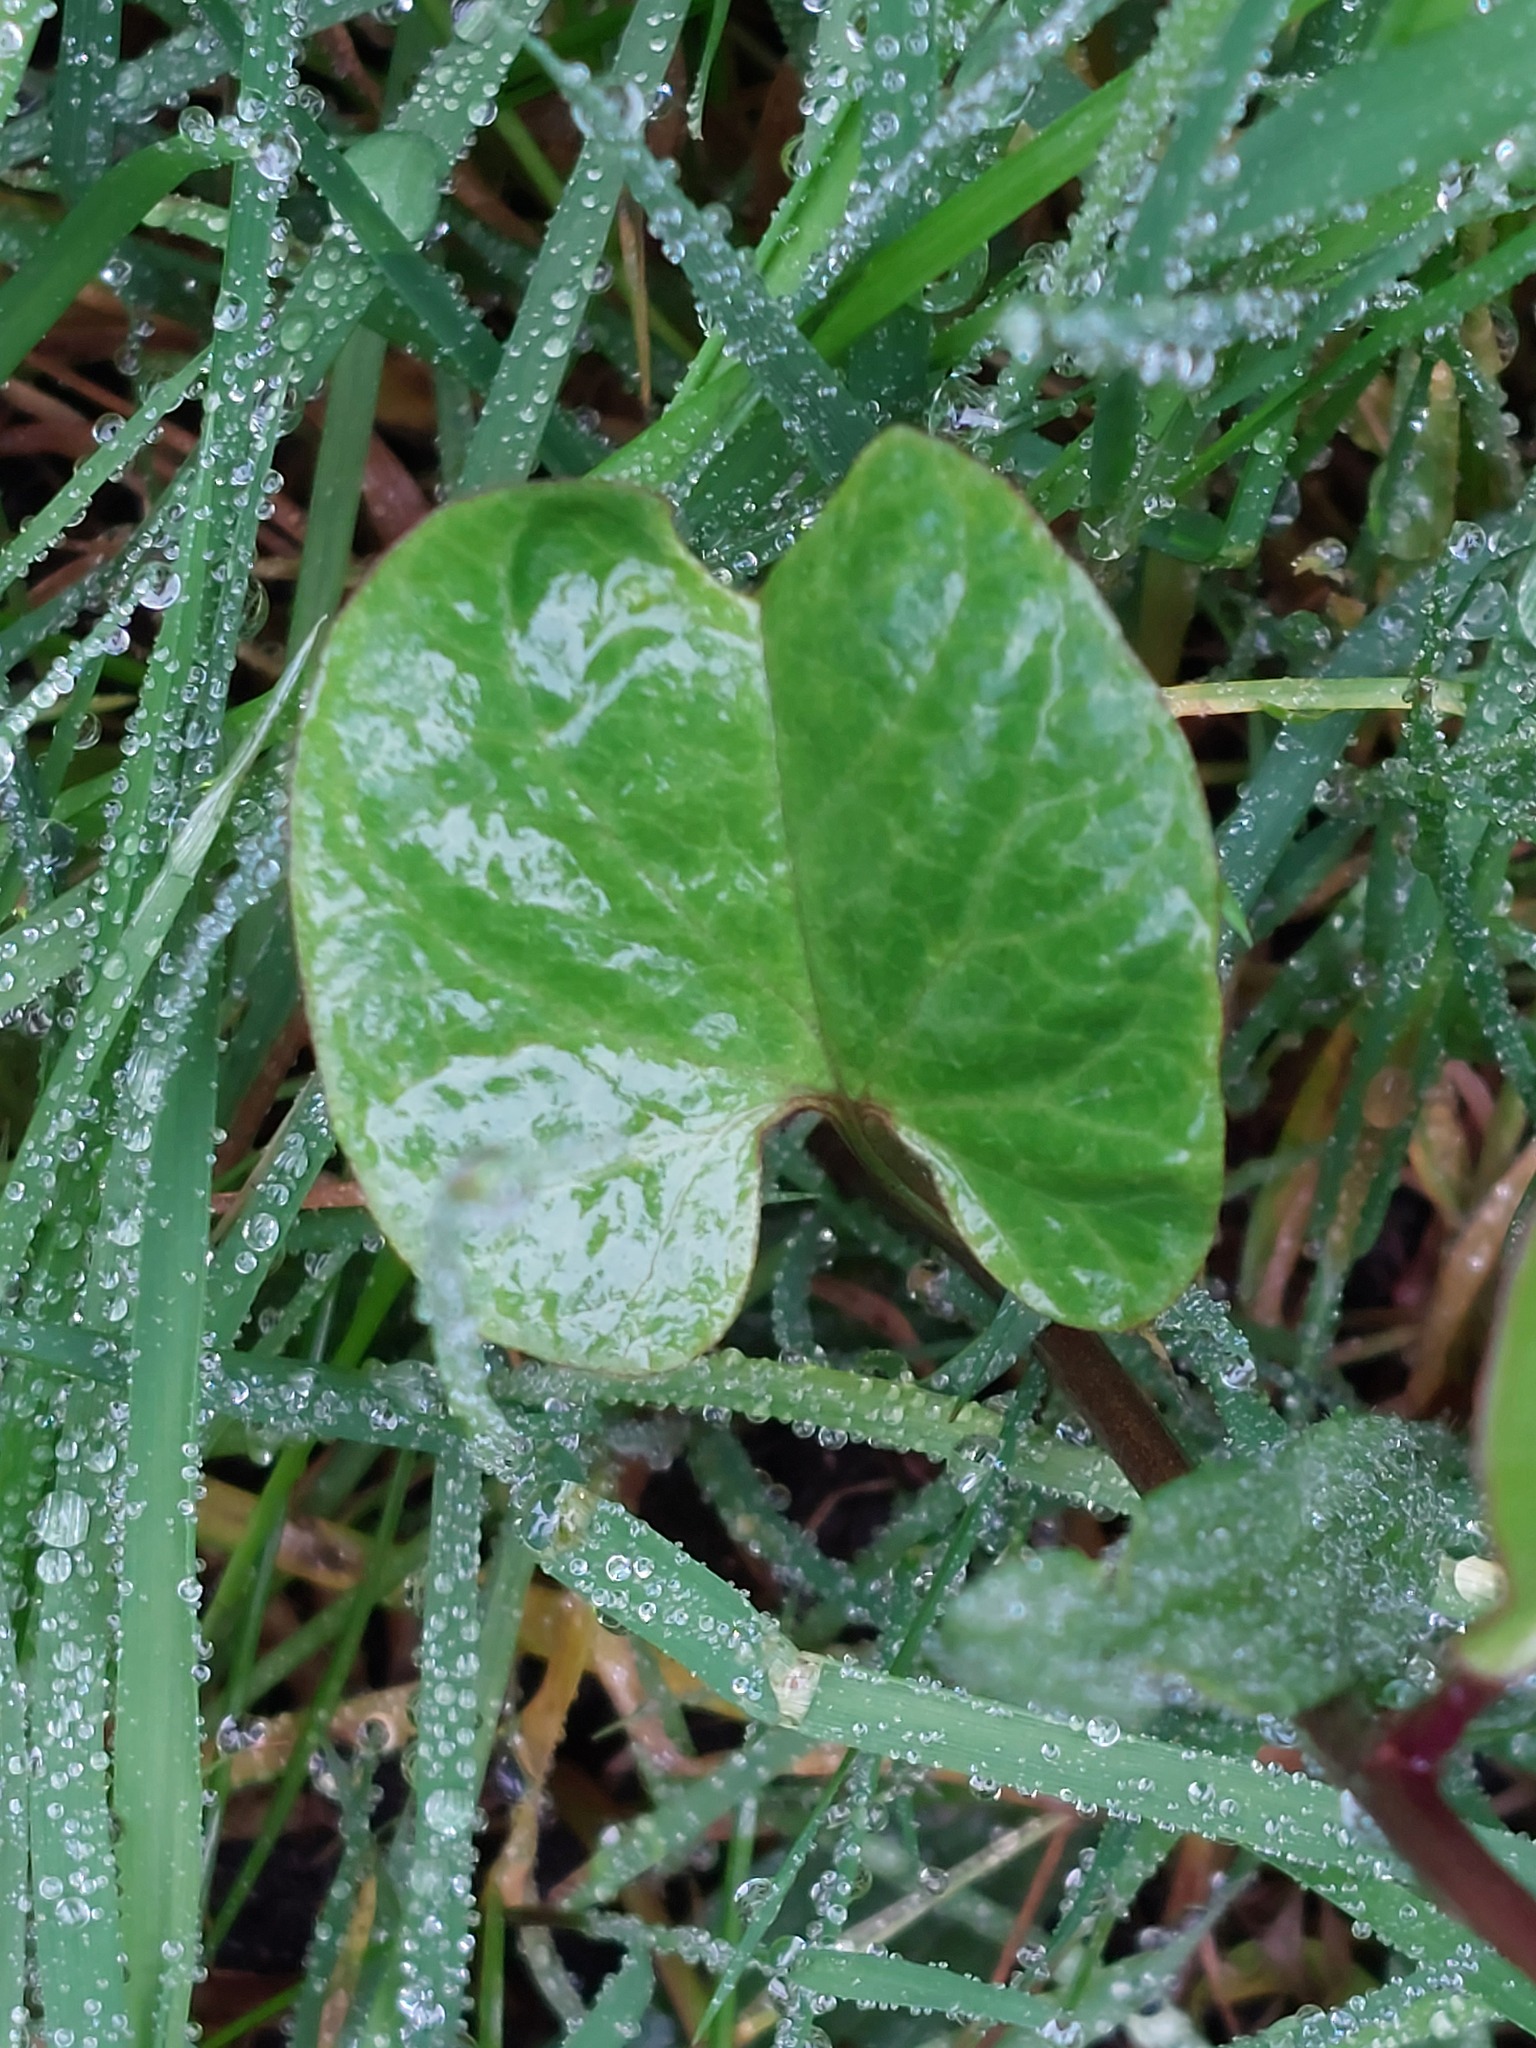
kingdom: Plantae
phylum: Tracheophyta
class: Magnoliopsida
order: Ranunculales
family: Ranunculaceae
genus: Ficaria
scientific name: Ficaria verna
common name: Lesser celandine
